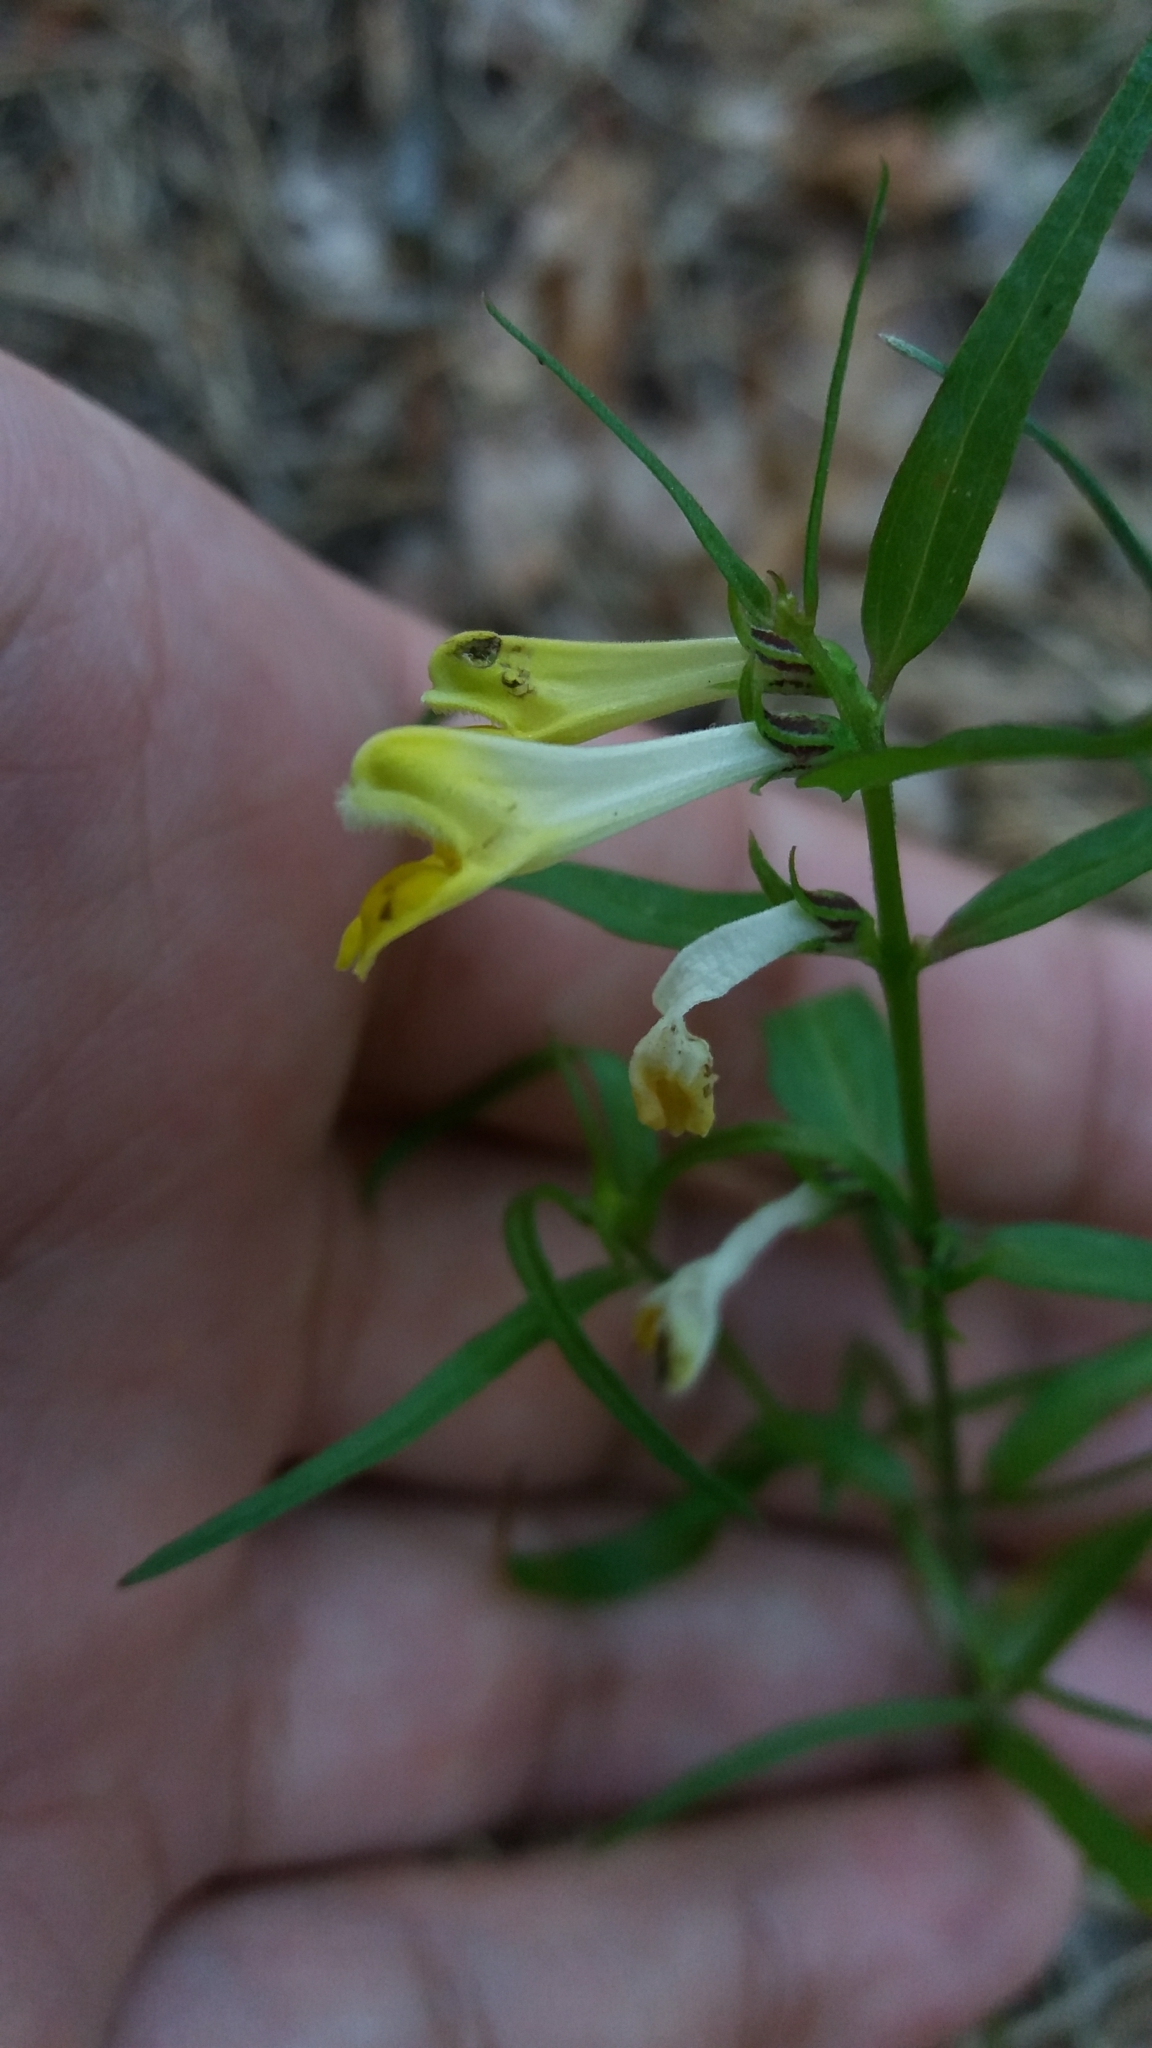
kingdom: Plantae
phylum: Tracheophyta
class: Magnoliopsida
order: Lamiales
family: Orobanchaceae
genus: Melampyrum
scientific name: Melampyrum pratense
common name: Common cow-wheat
